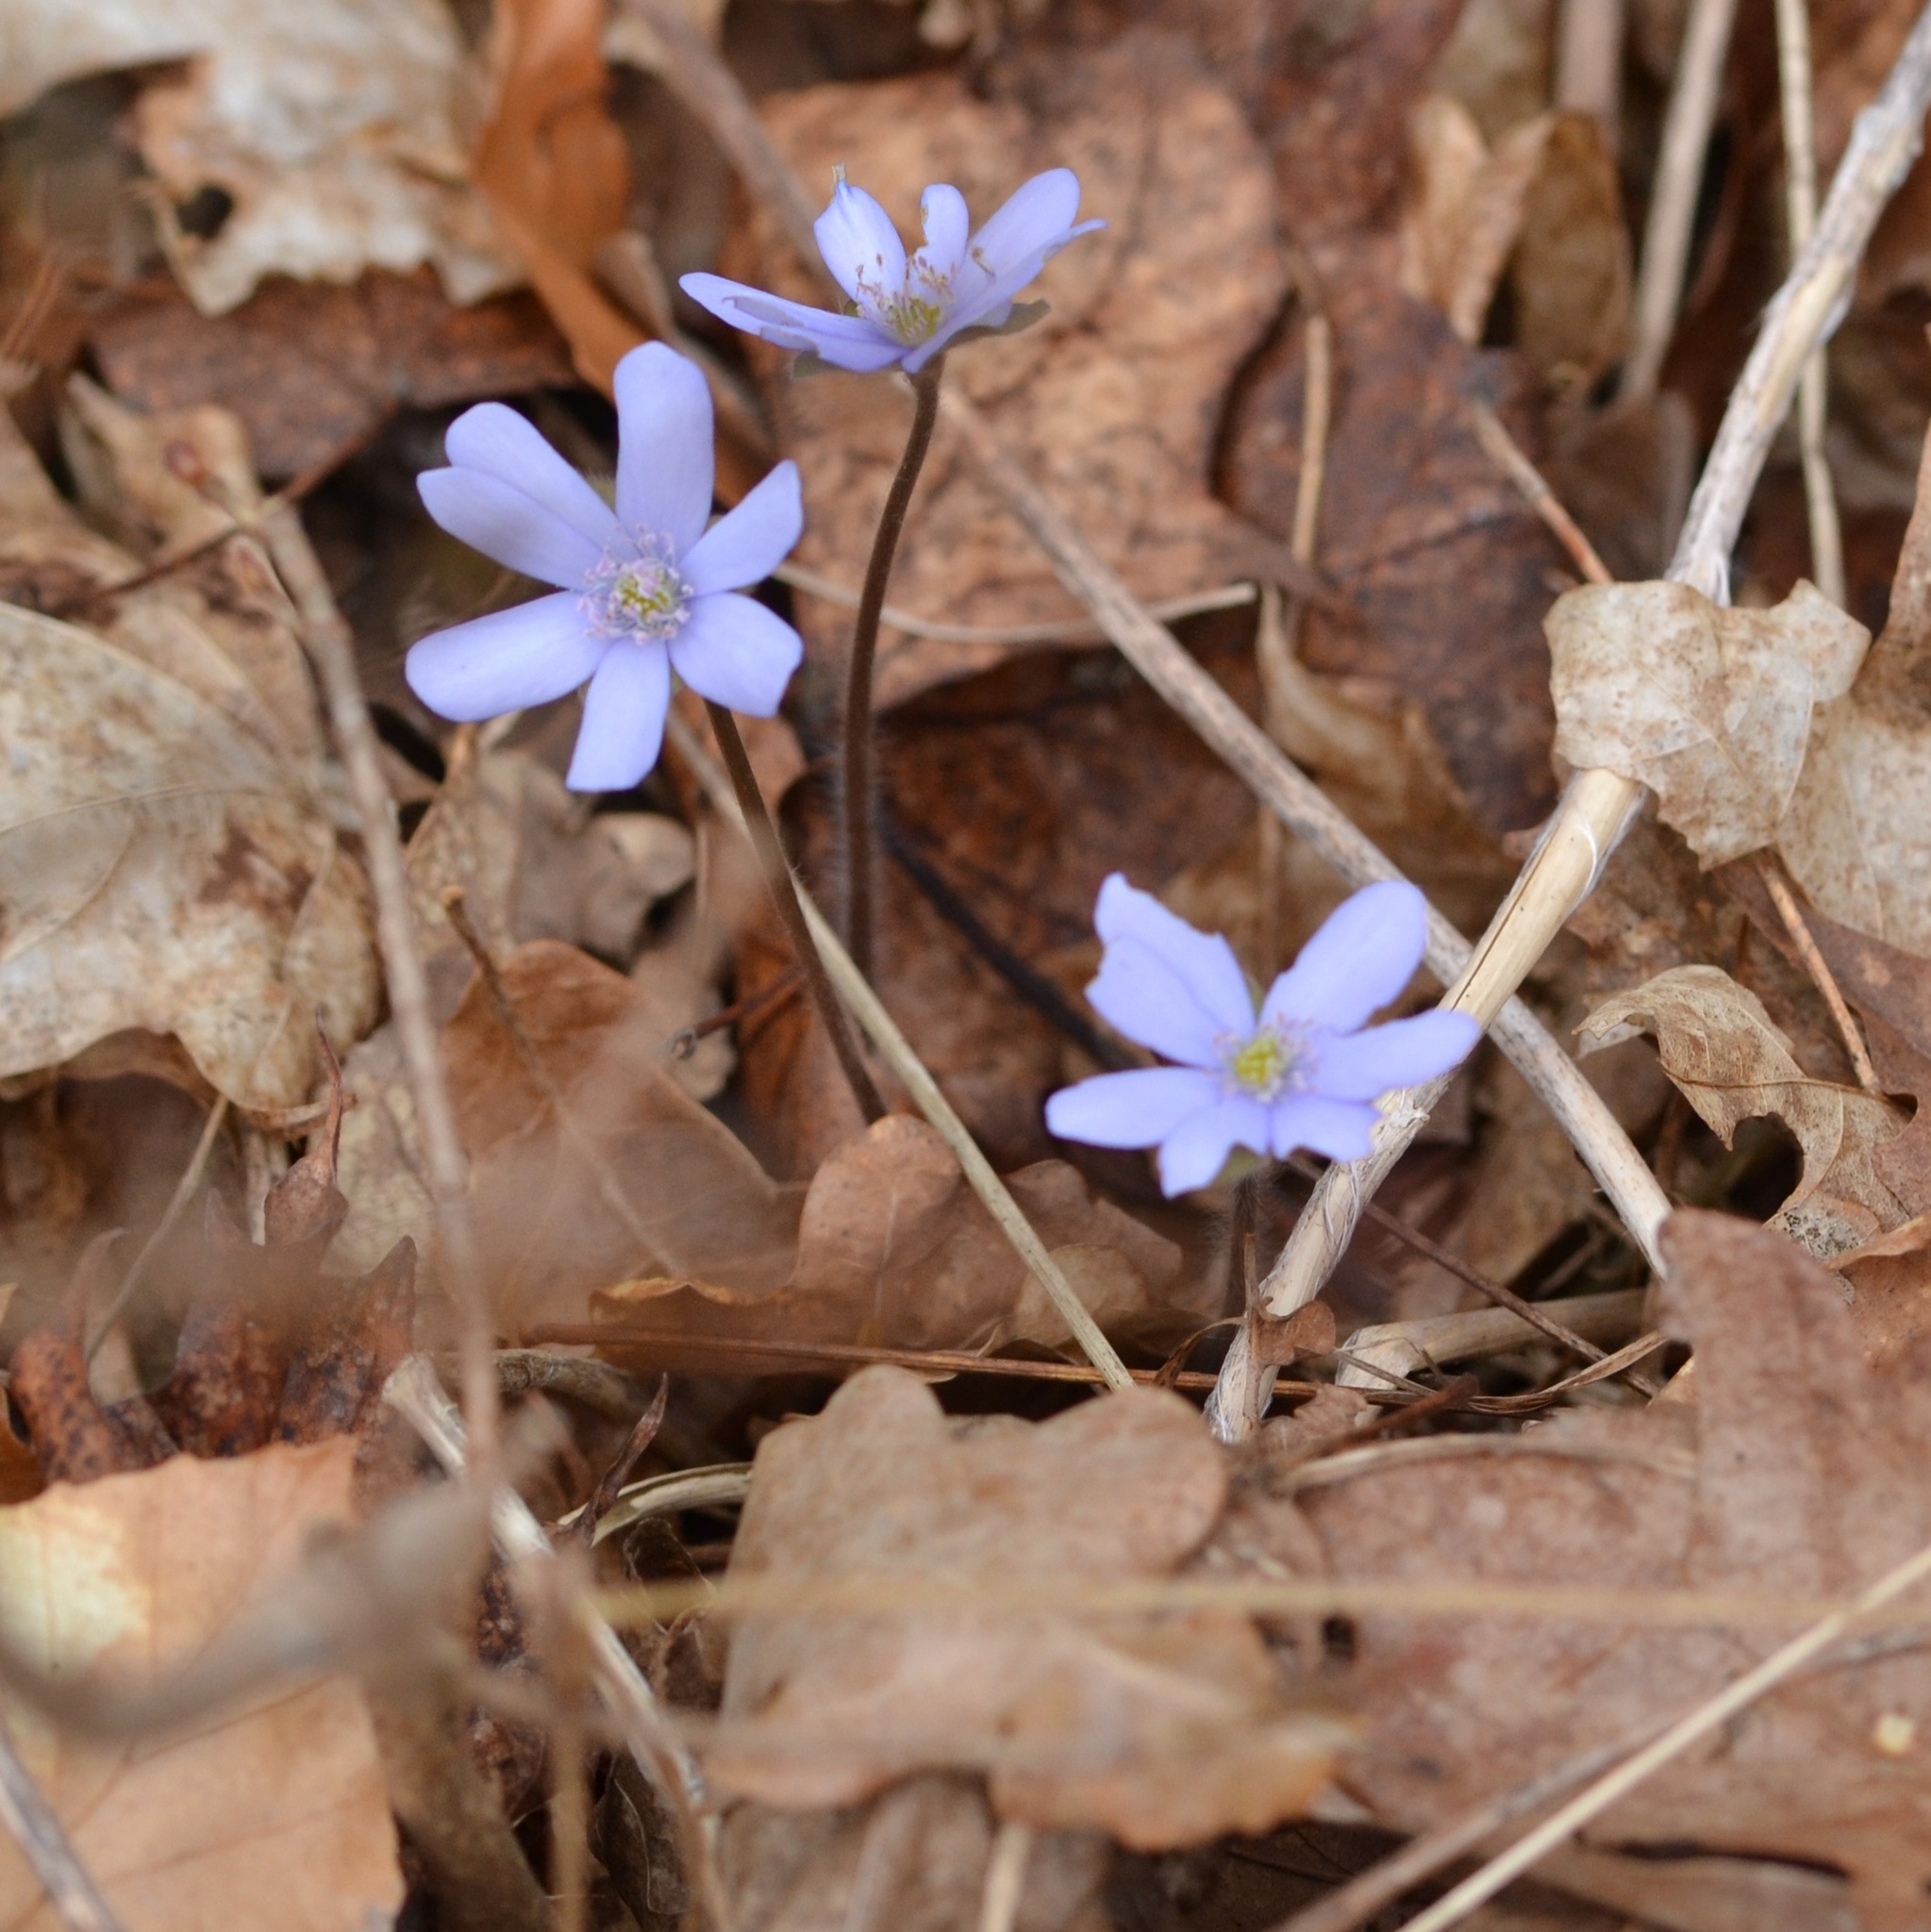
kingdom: Plantae
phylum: Tracheophyta
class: Magnoliopsida
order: Ranunculales
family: Ranunculaceae
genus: Hepatica
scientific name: Hepatica nobilis
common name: Liverleaf
